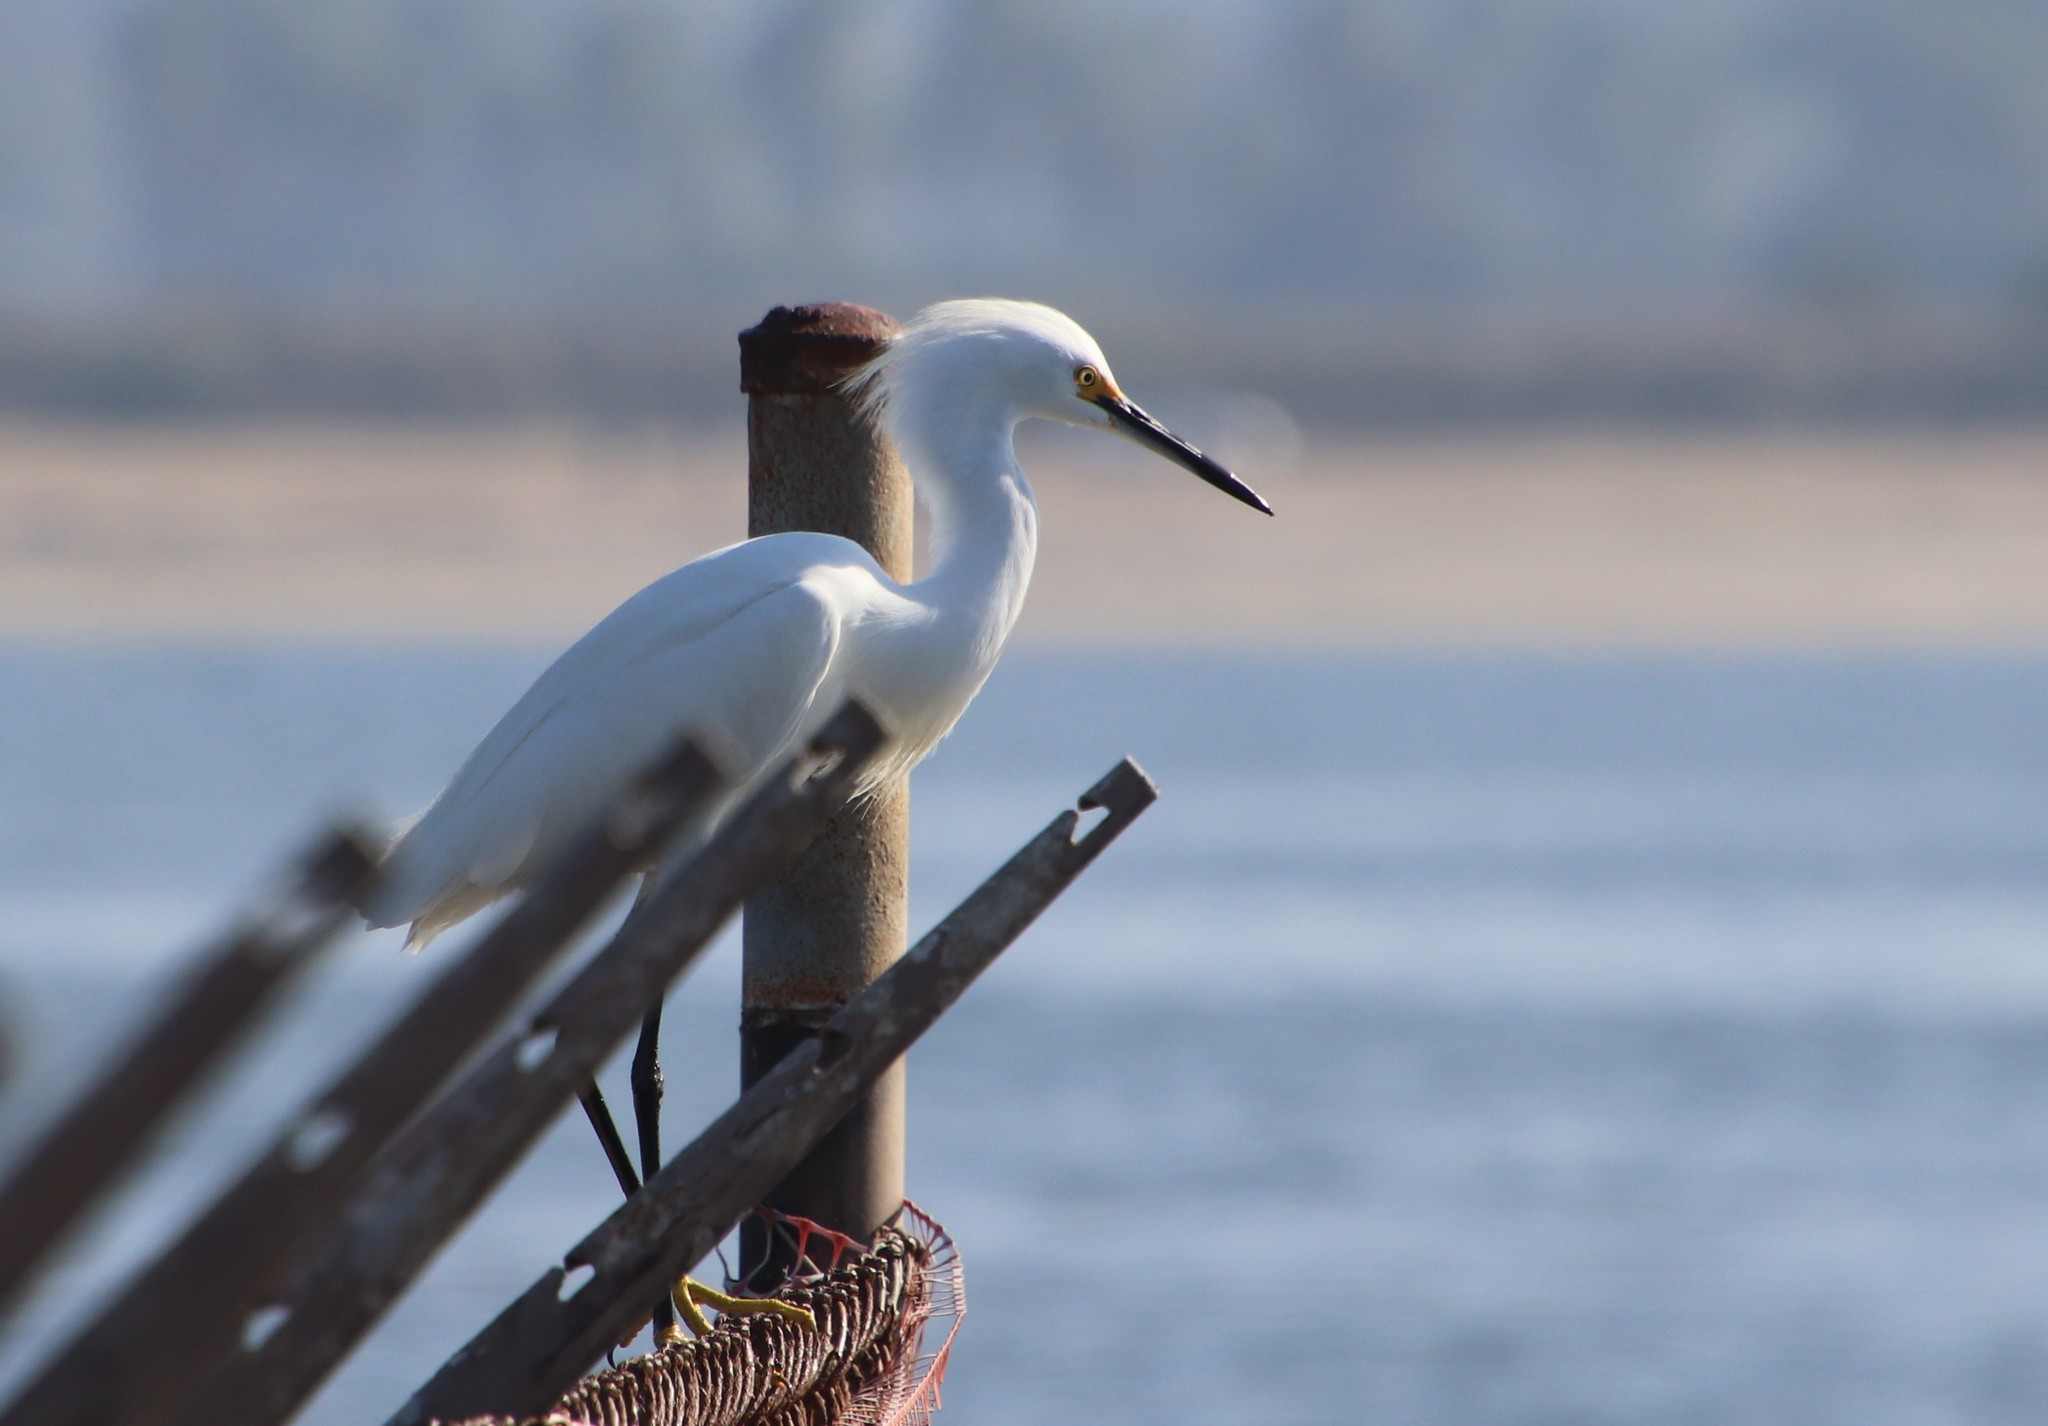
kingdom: Animalia
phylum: Chordata
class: Aves
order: Pelecaniformes
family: Ardeidae
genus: Egretta
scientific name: Egretta thula
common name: Snowy egret
